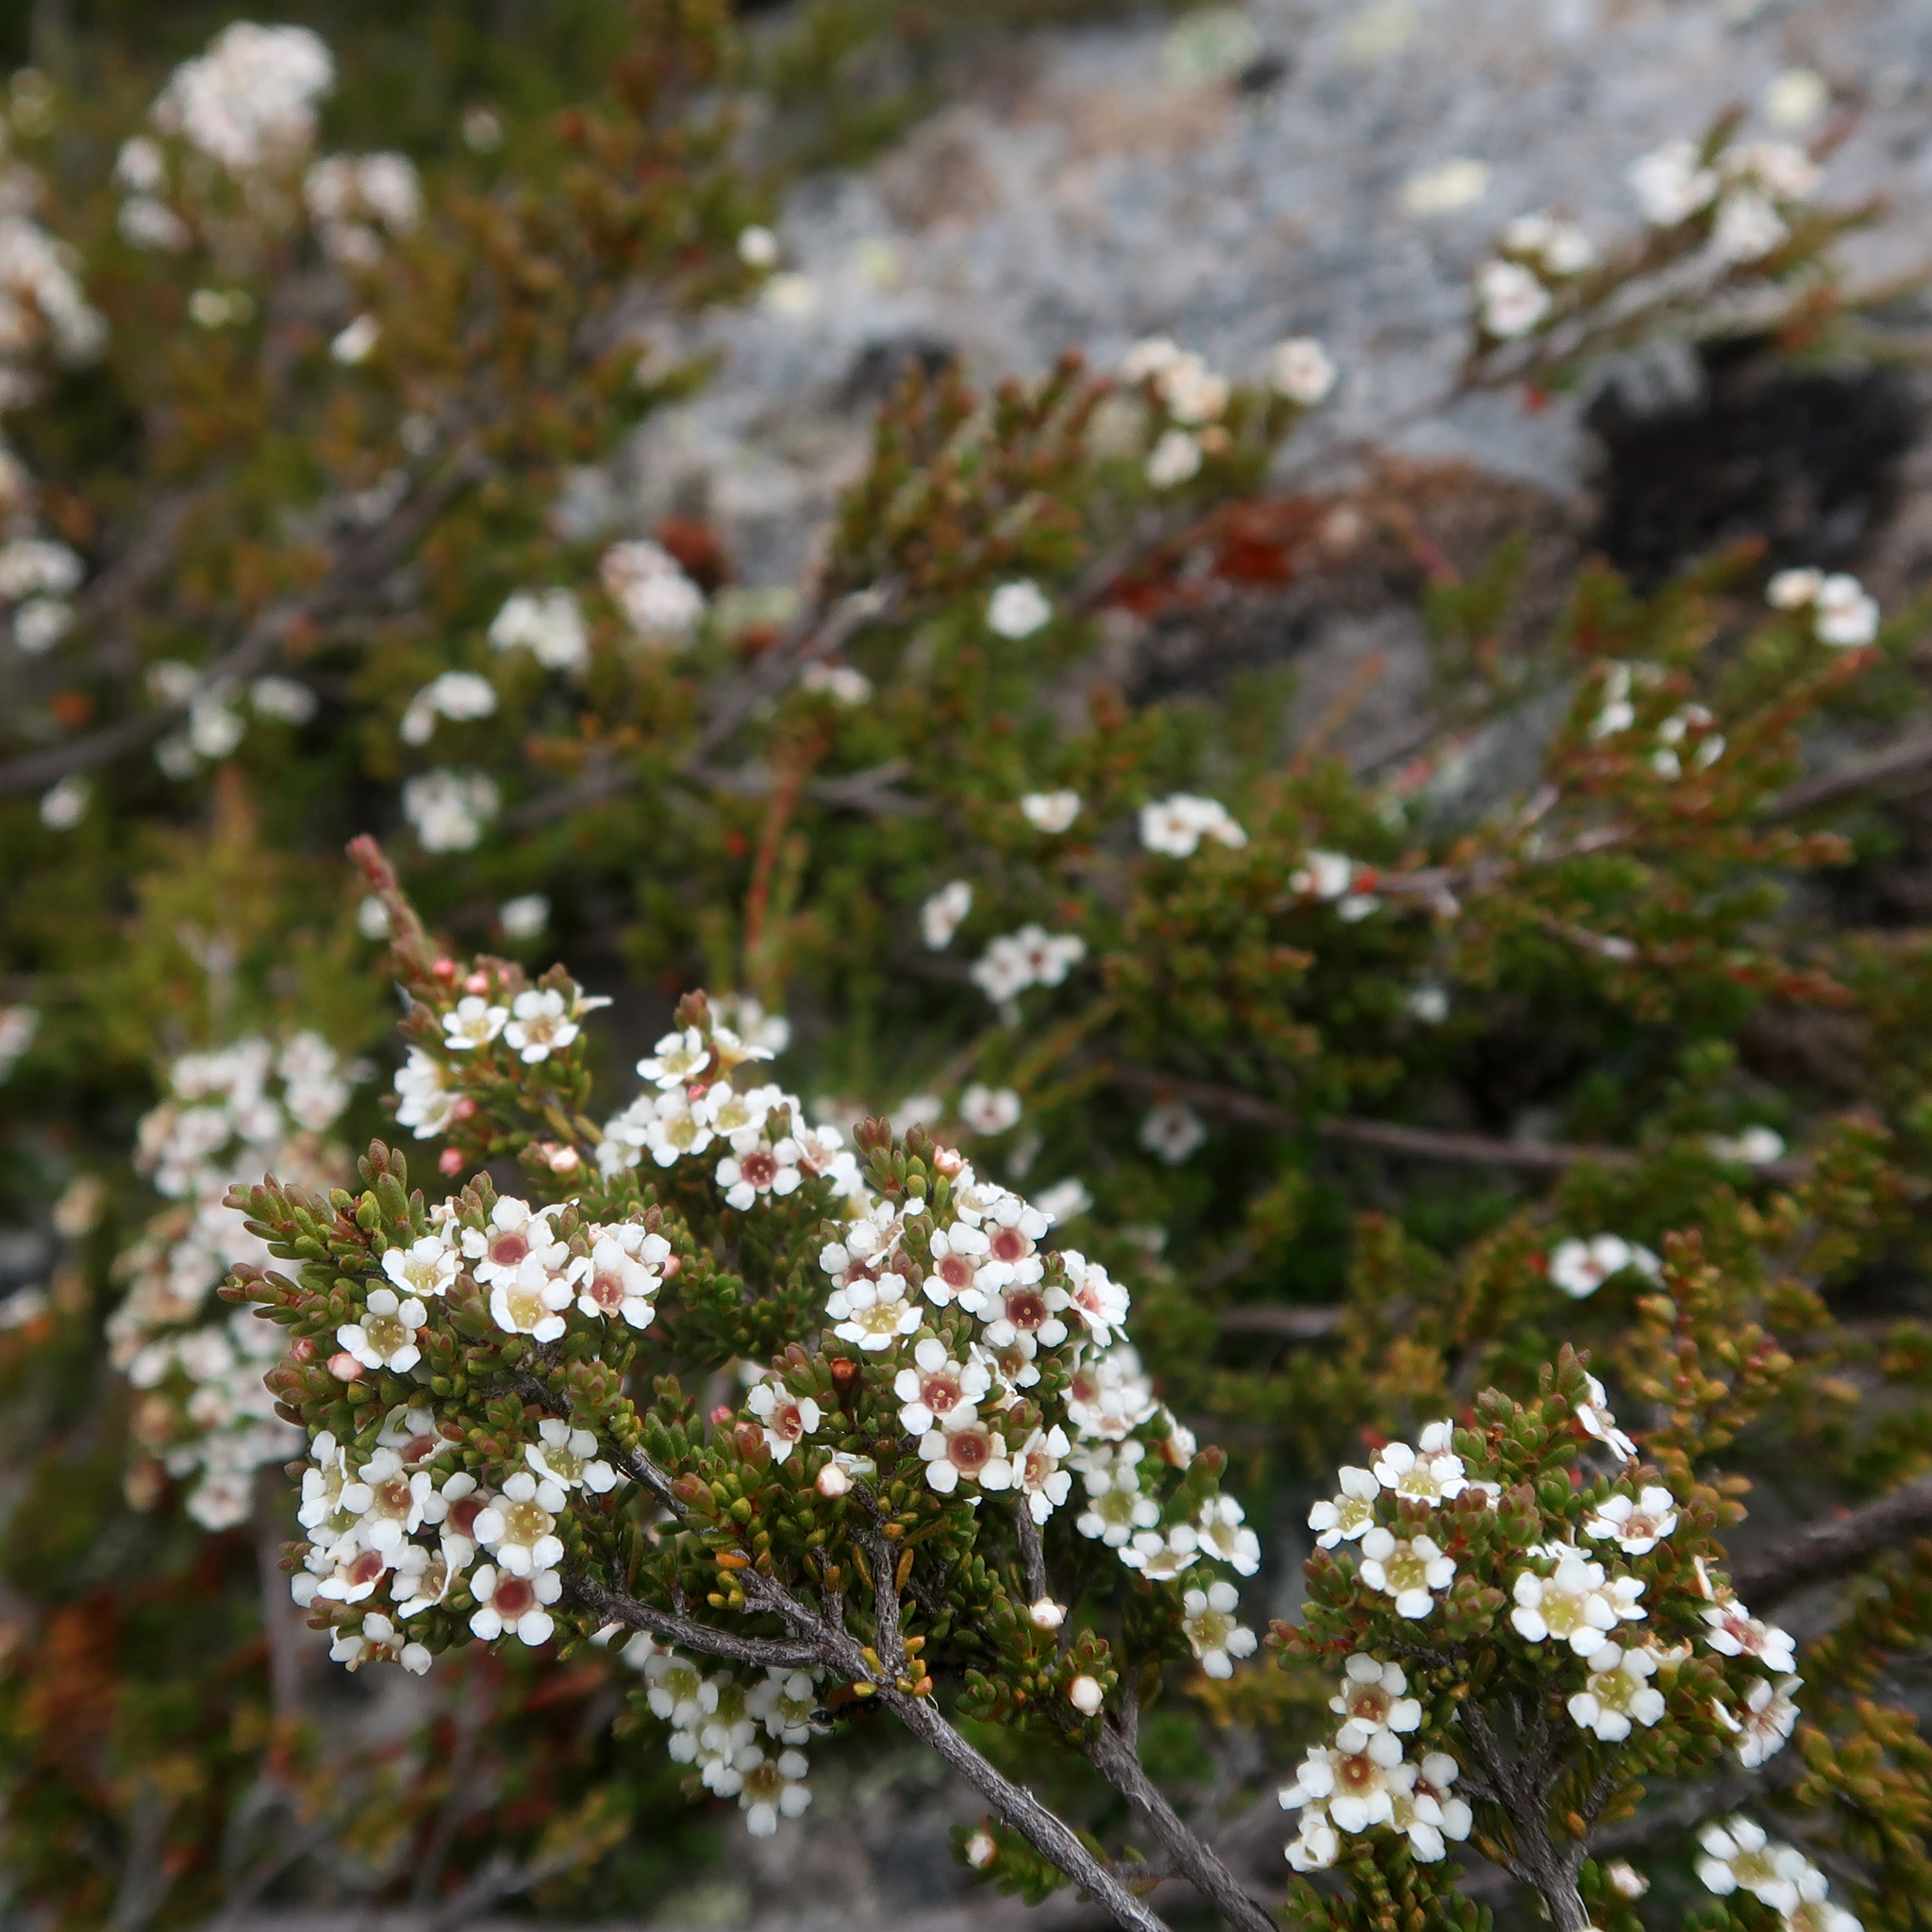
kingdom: Plantae
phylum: Tracheophyta
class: Magnoliopsida
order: Myrtales
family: Myrtaceae
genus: Baeckea
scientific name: Baeckea gunniana
